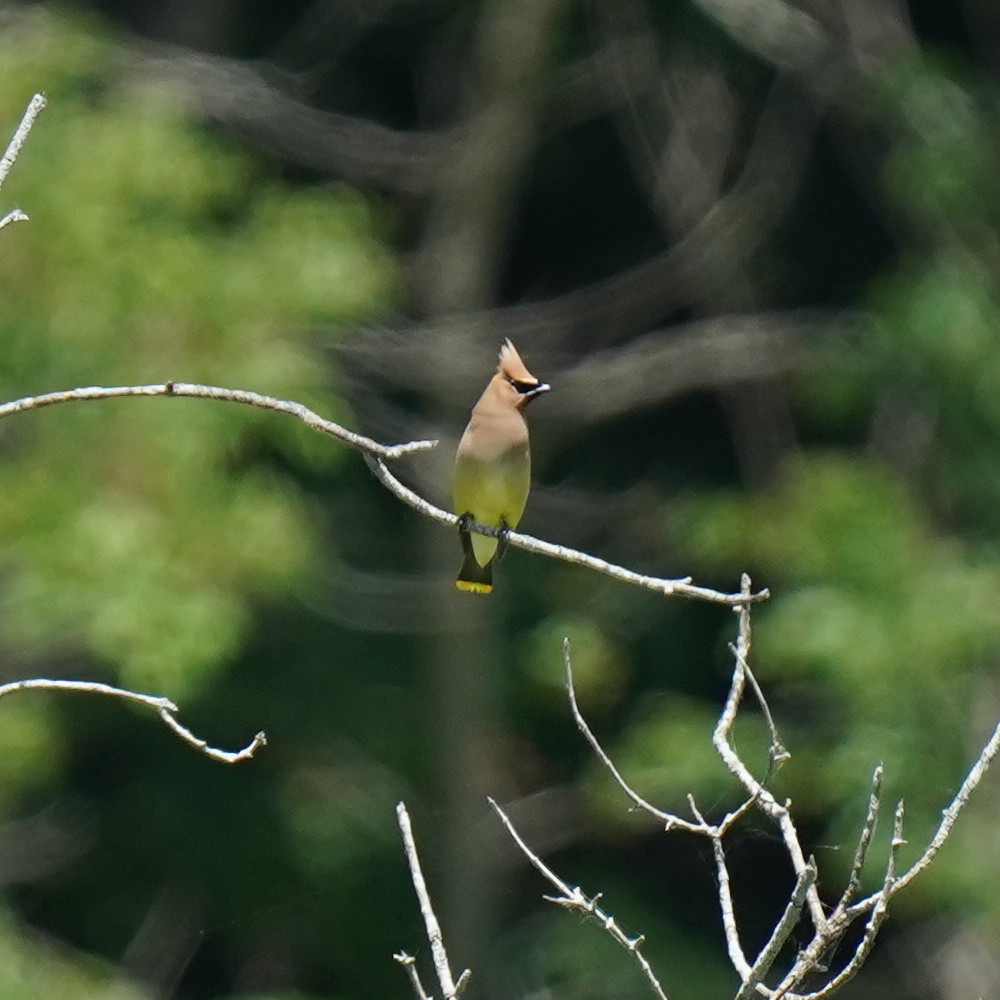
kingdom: Animalia
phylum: Chordata
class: Aves
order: Passeriformes
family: Bombycillidae
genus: Bombycilla
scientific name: Bombycilla cedrorum
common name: Cedar waxwing
